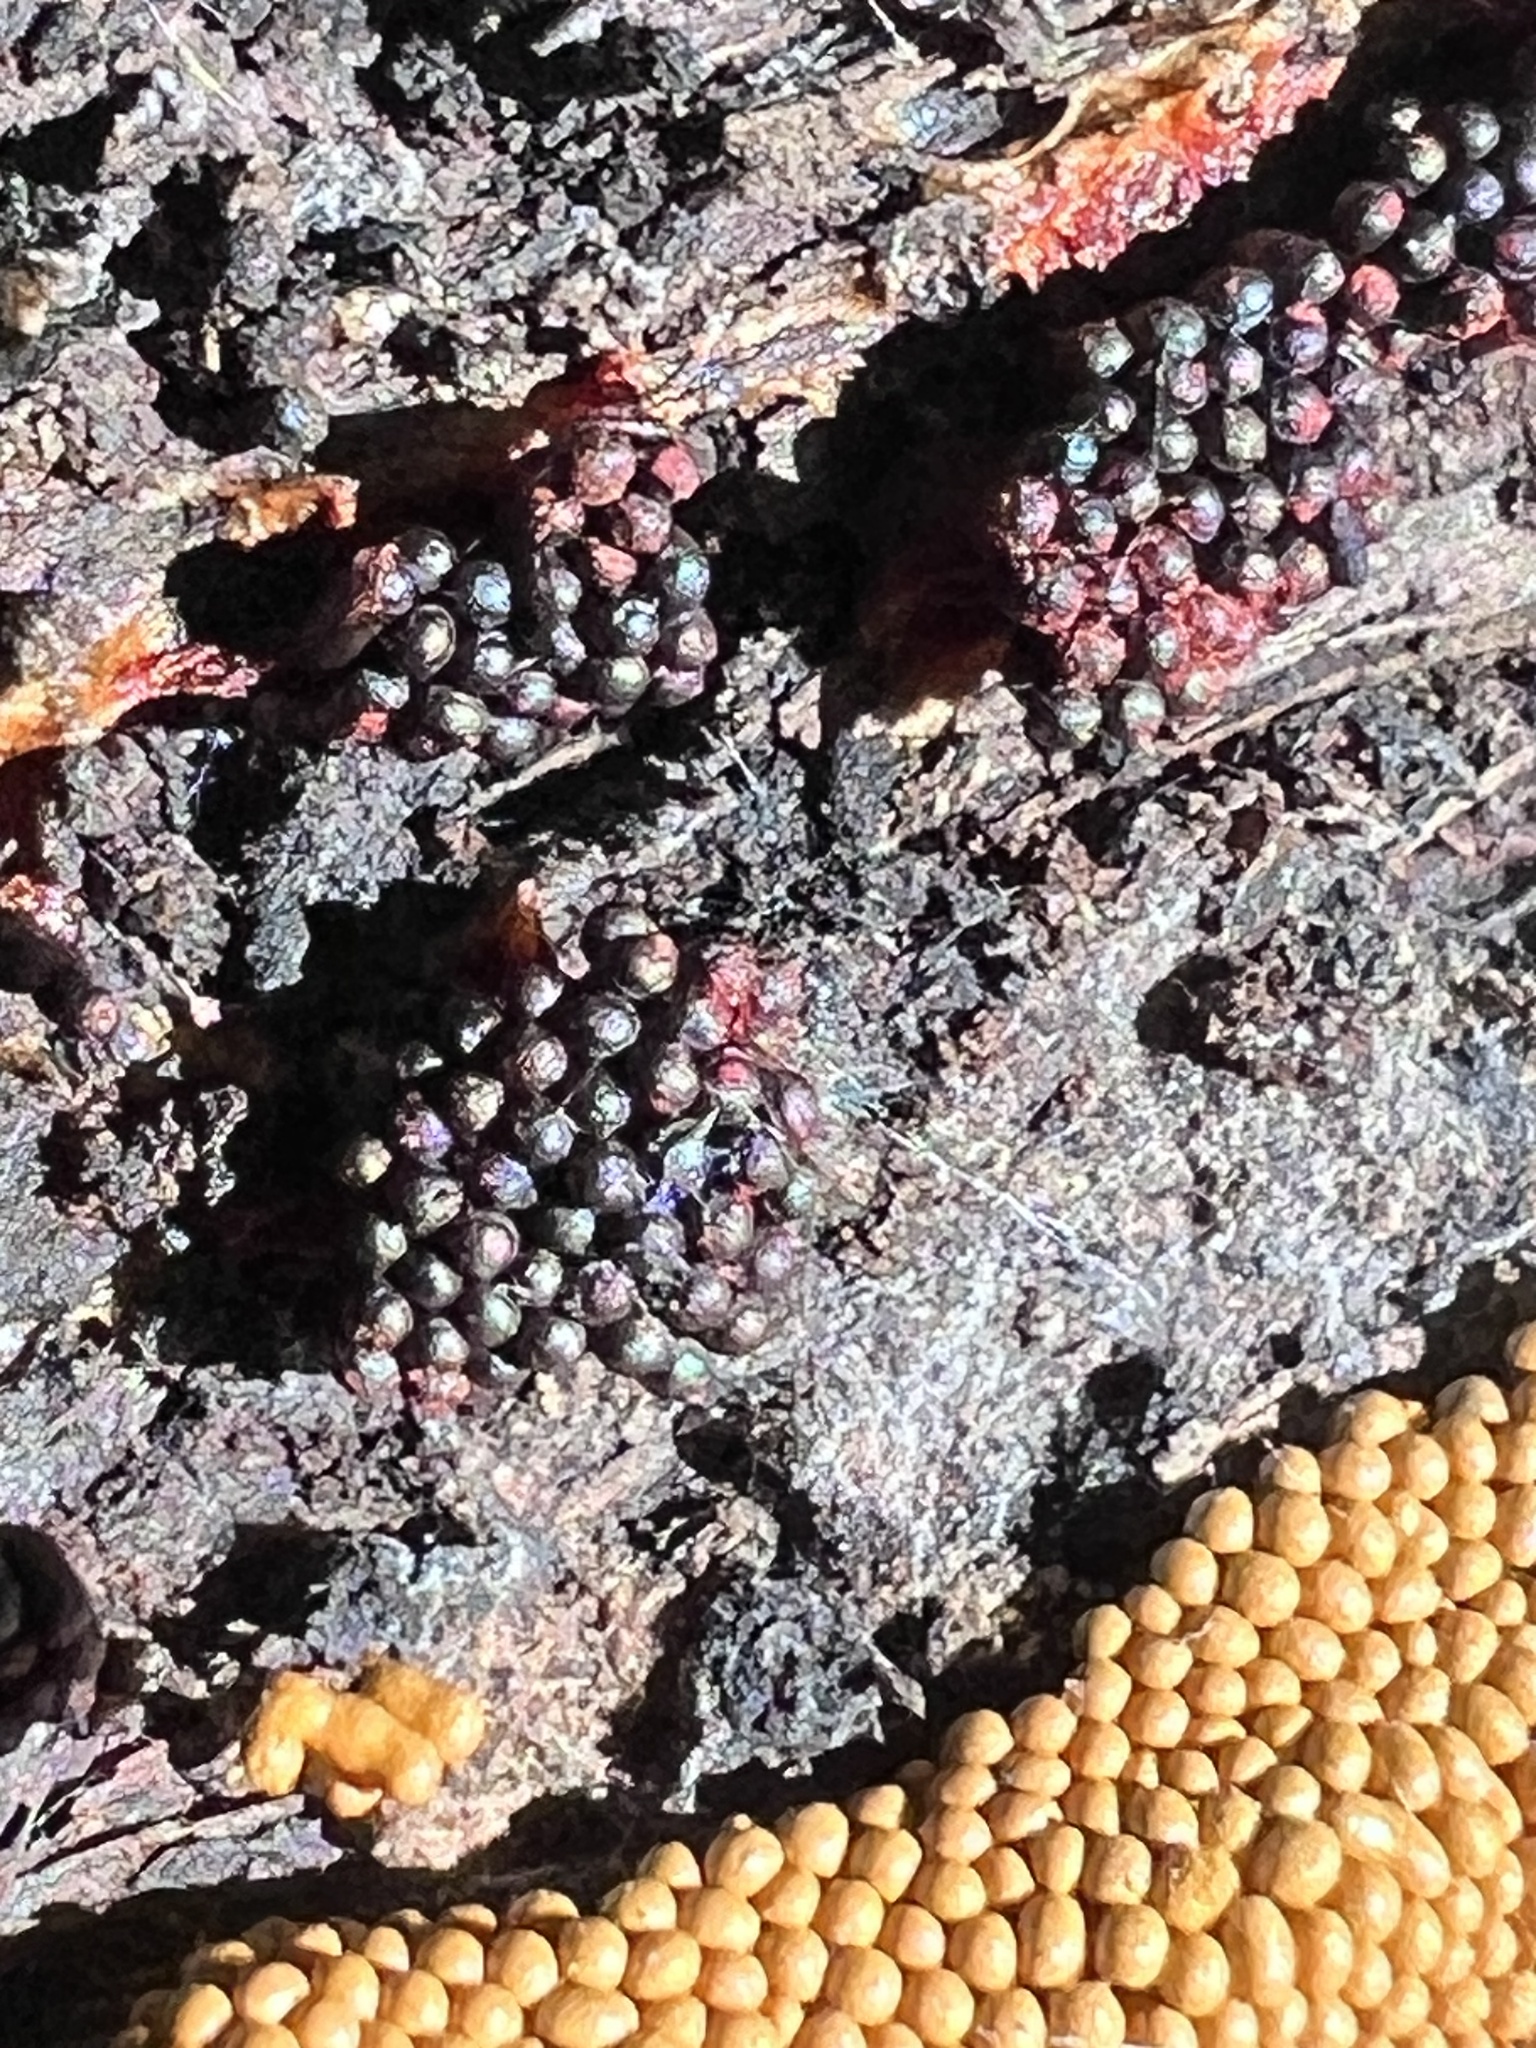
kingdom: Protozoa
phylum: Mycetozoa
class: Myxomycetes
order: Trichiales
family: Trichiaceae
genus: Metatrichia
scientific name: Metatrichia vesparia
